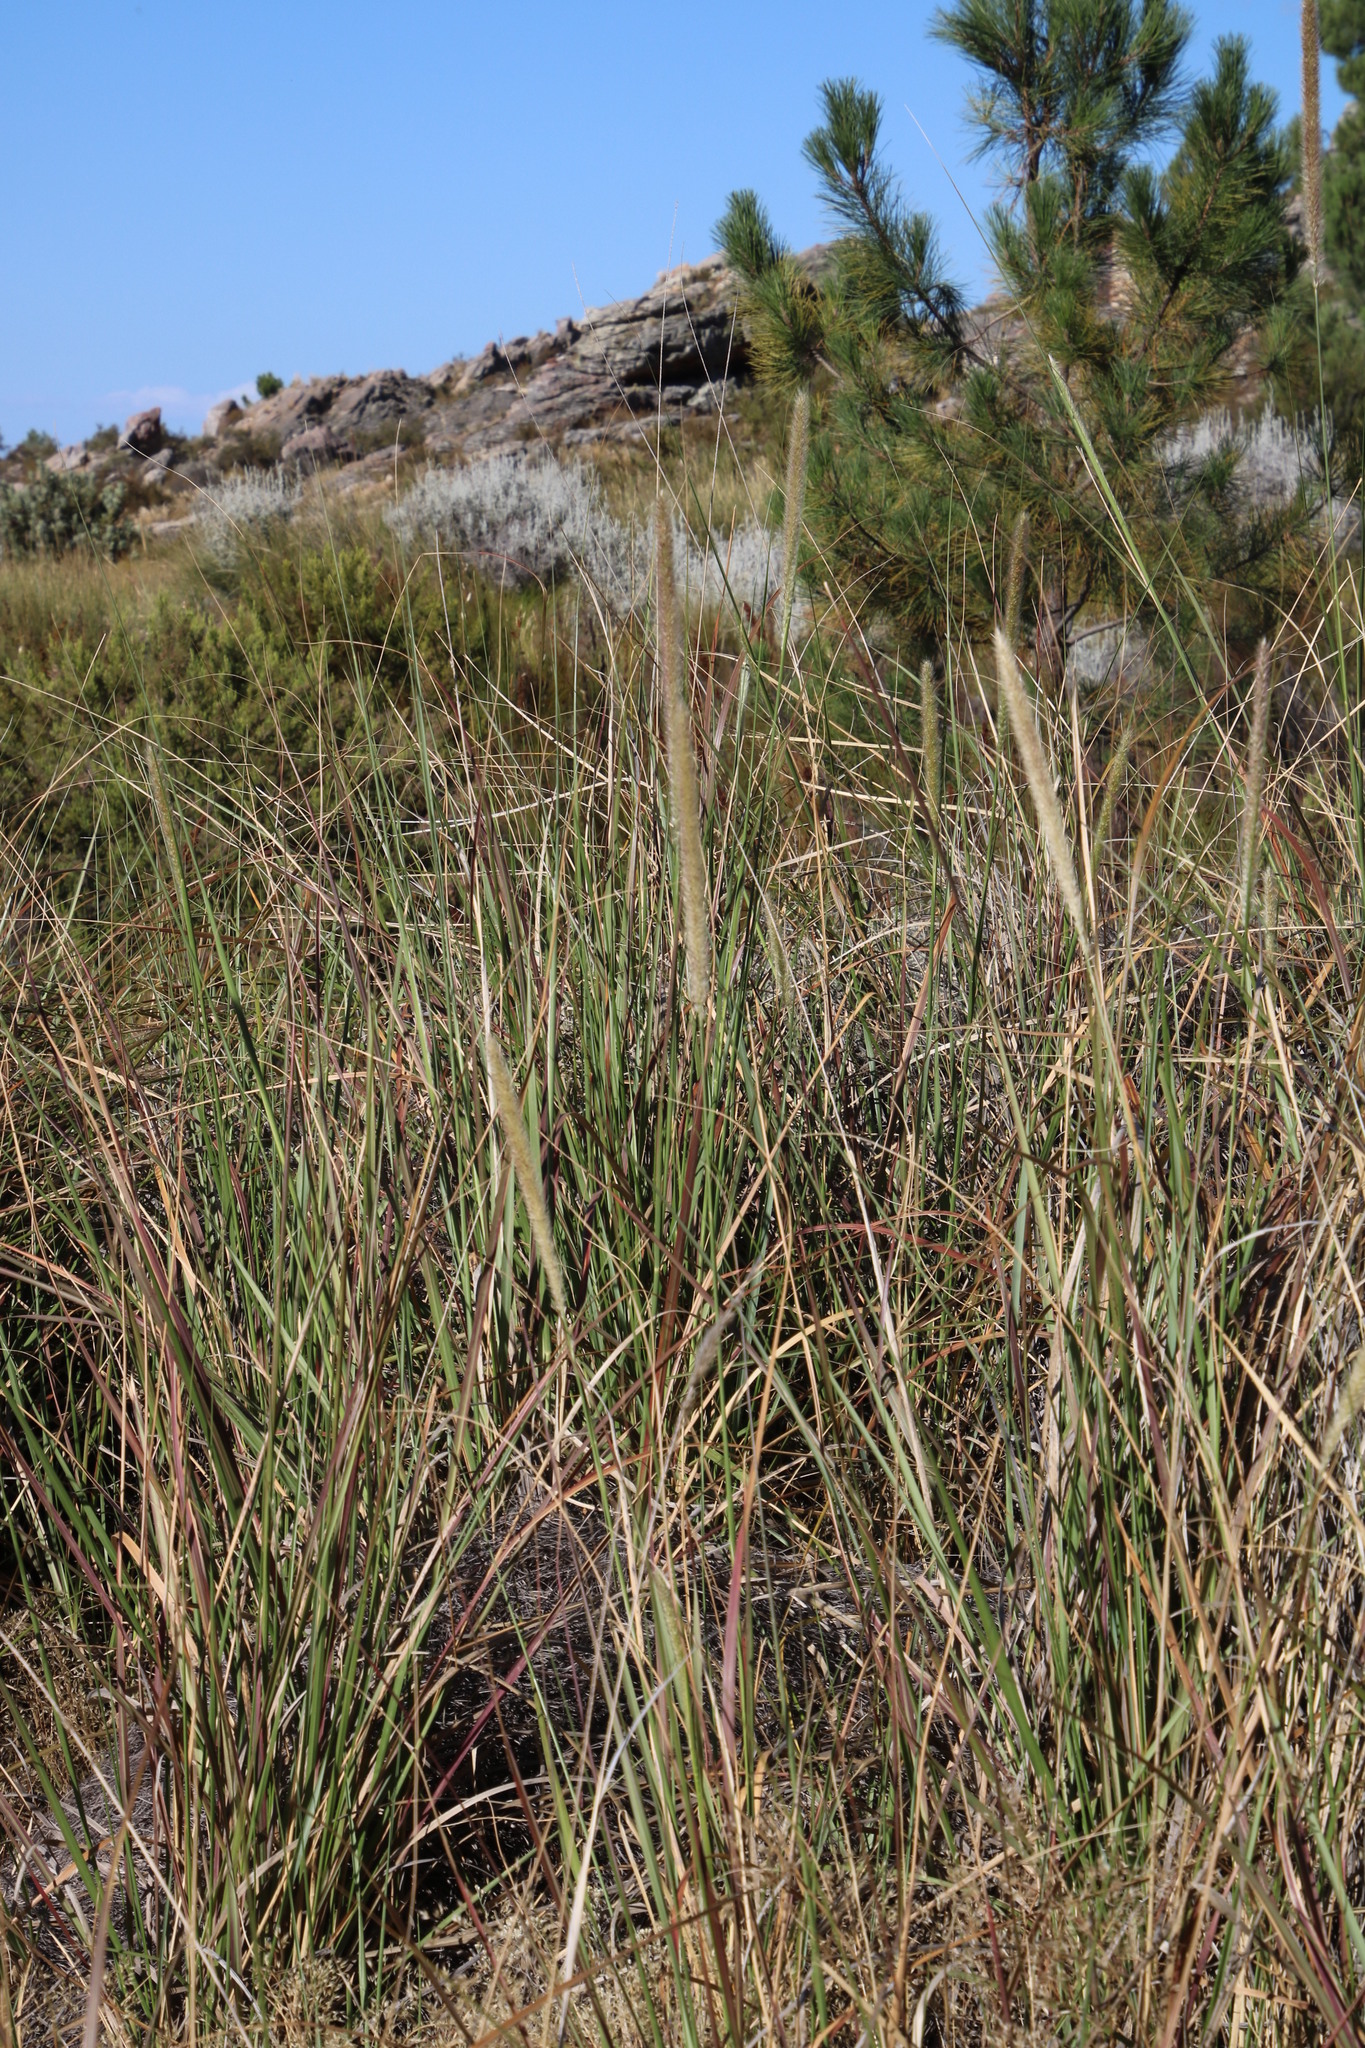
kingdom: Plantae
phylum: Tracheophyta
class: Liliopsida
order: Poales
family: Poaceae
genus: Cenchrus
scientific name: Cenchrus caudatus
